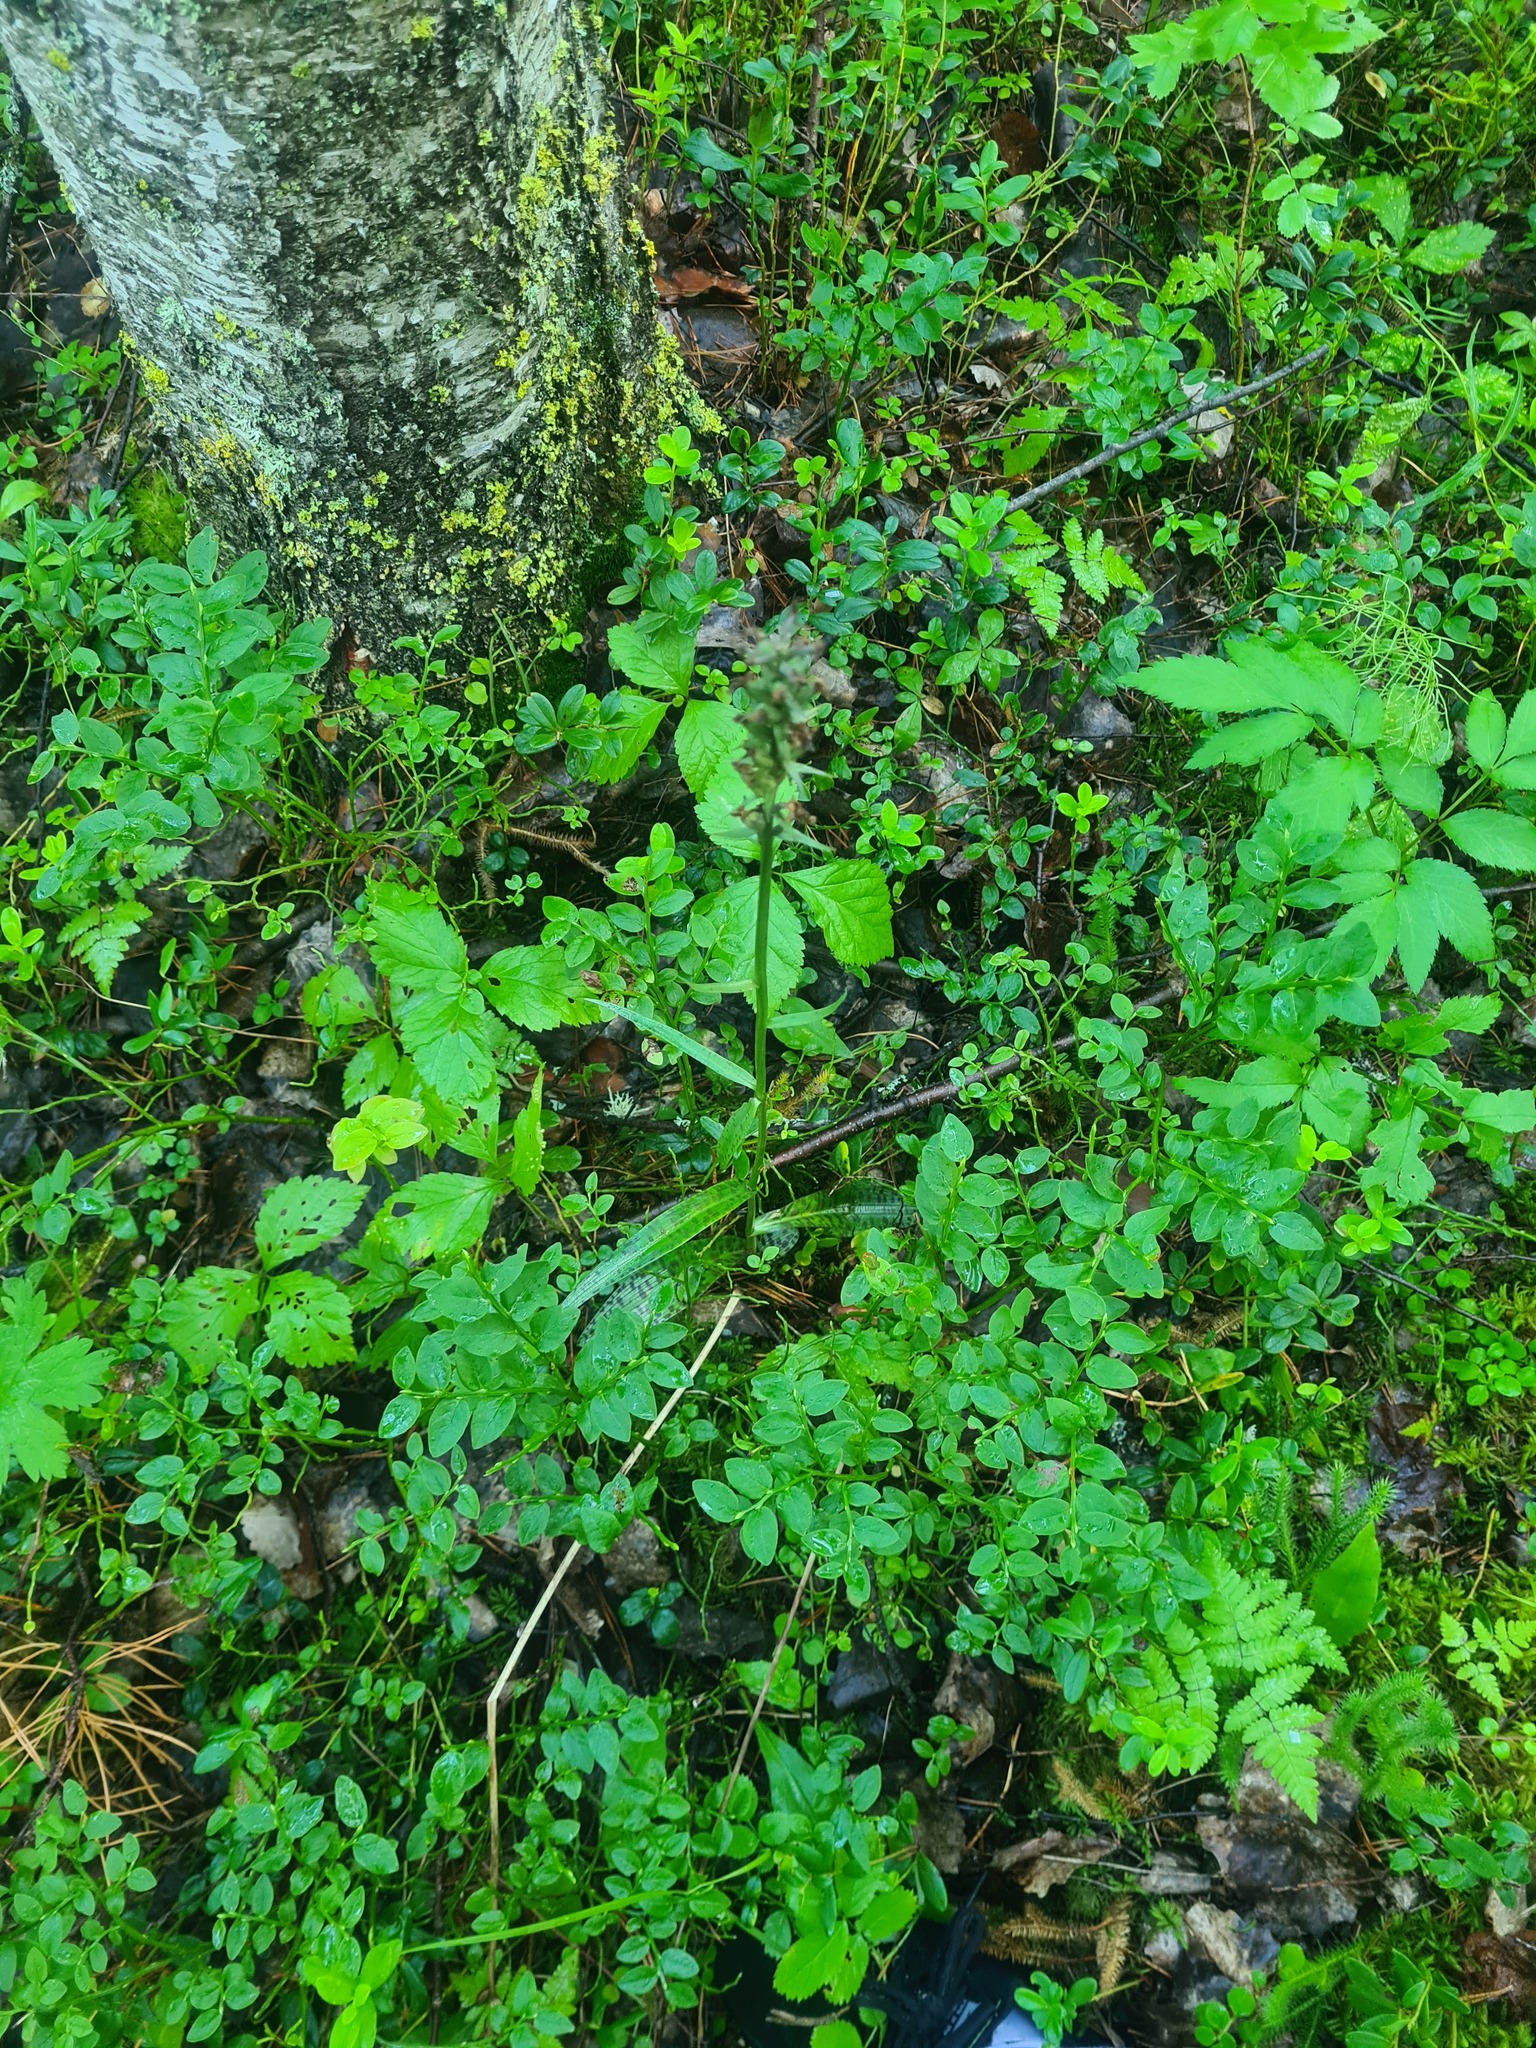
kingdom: Plantae
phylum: Tracheophyta
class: Liliopsida
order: Asparagales
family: Orchidaceae
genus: Dactylorhiza
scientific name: Dactylorhiza maculata
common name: Heath spotted-orchid
